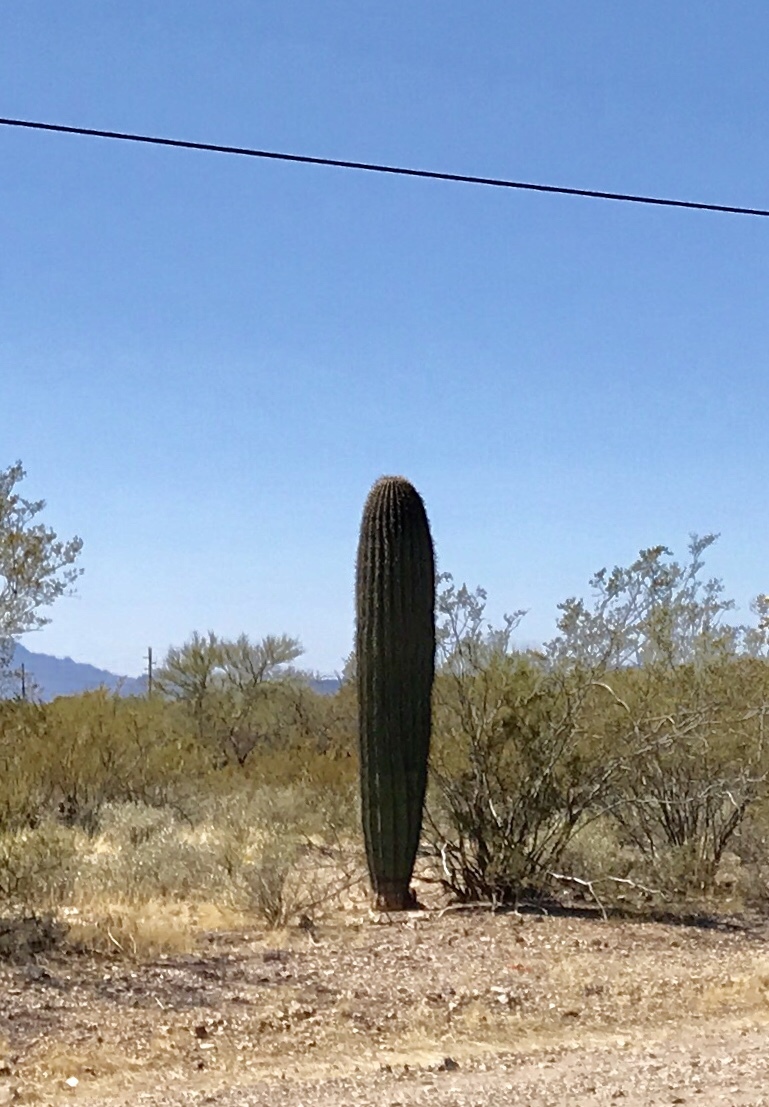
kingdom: Plantae
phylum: Tracheophyta
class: Magnoliopsida
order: Caryophyllales
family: Cactaceae
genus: Carnegiea
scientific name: Carnegiea gigantea
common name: Saguaro
